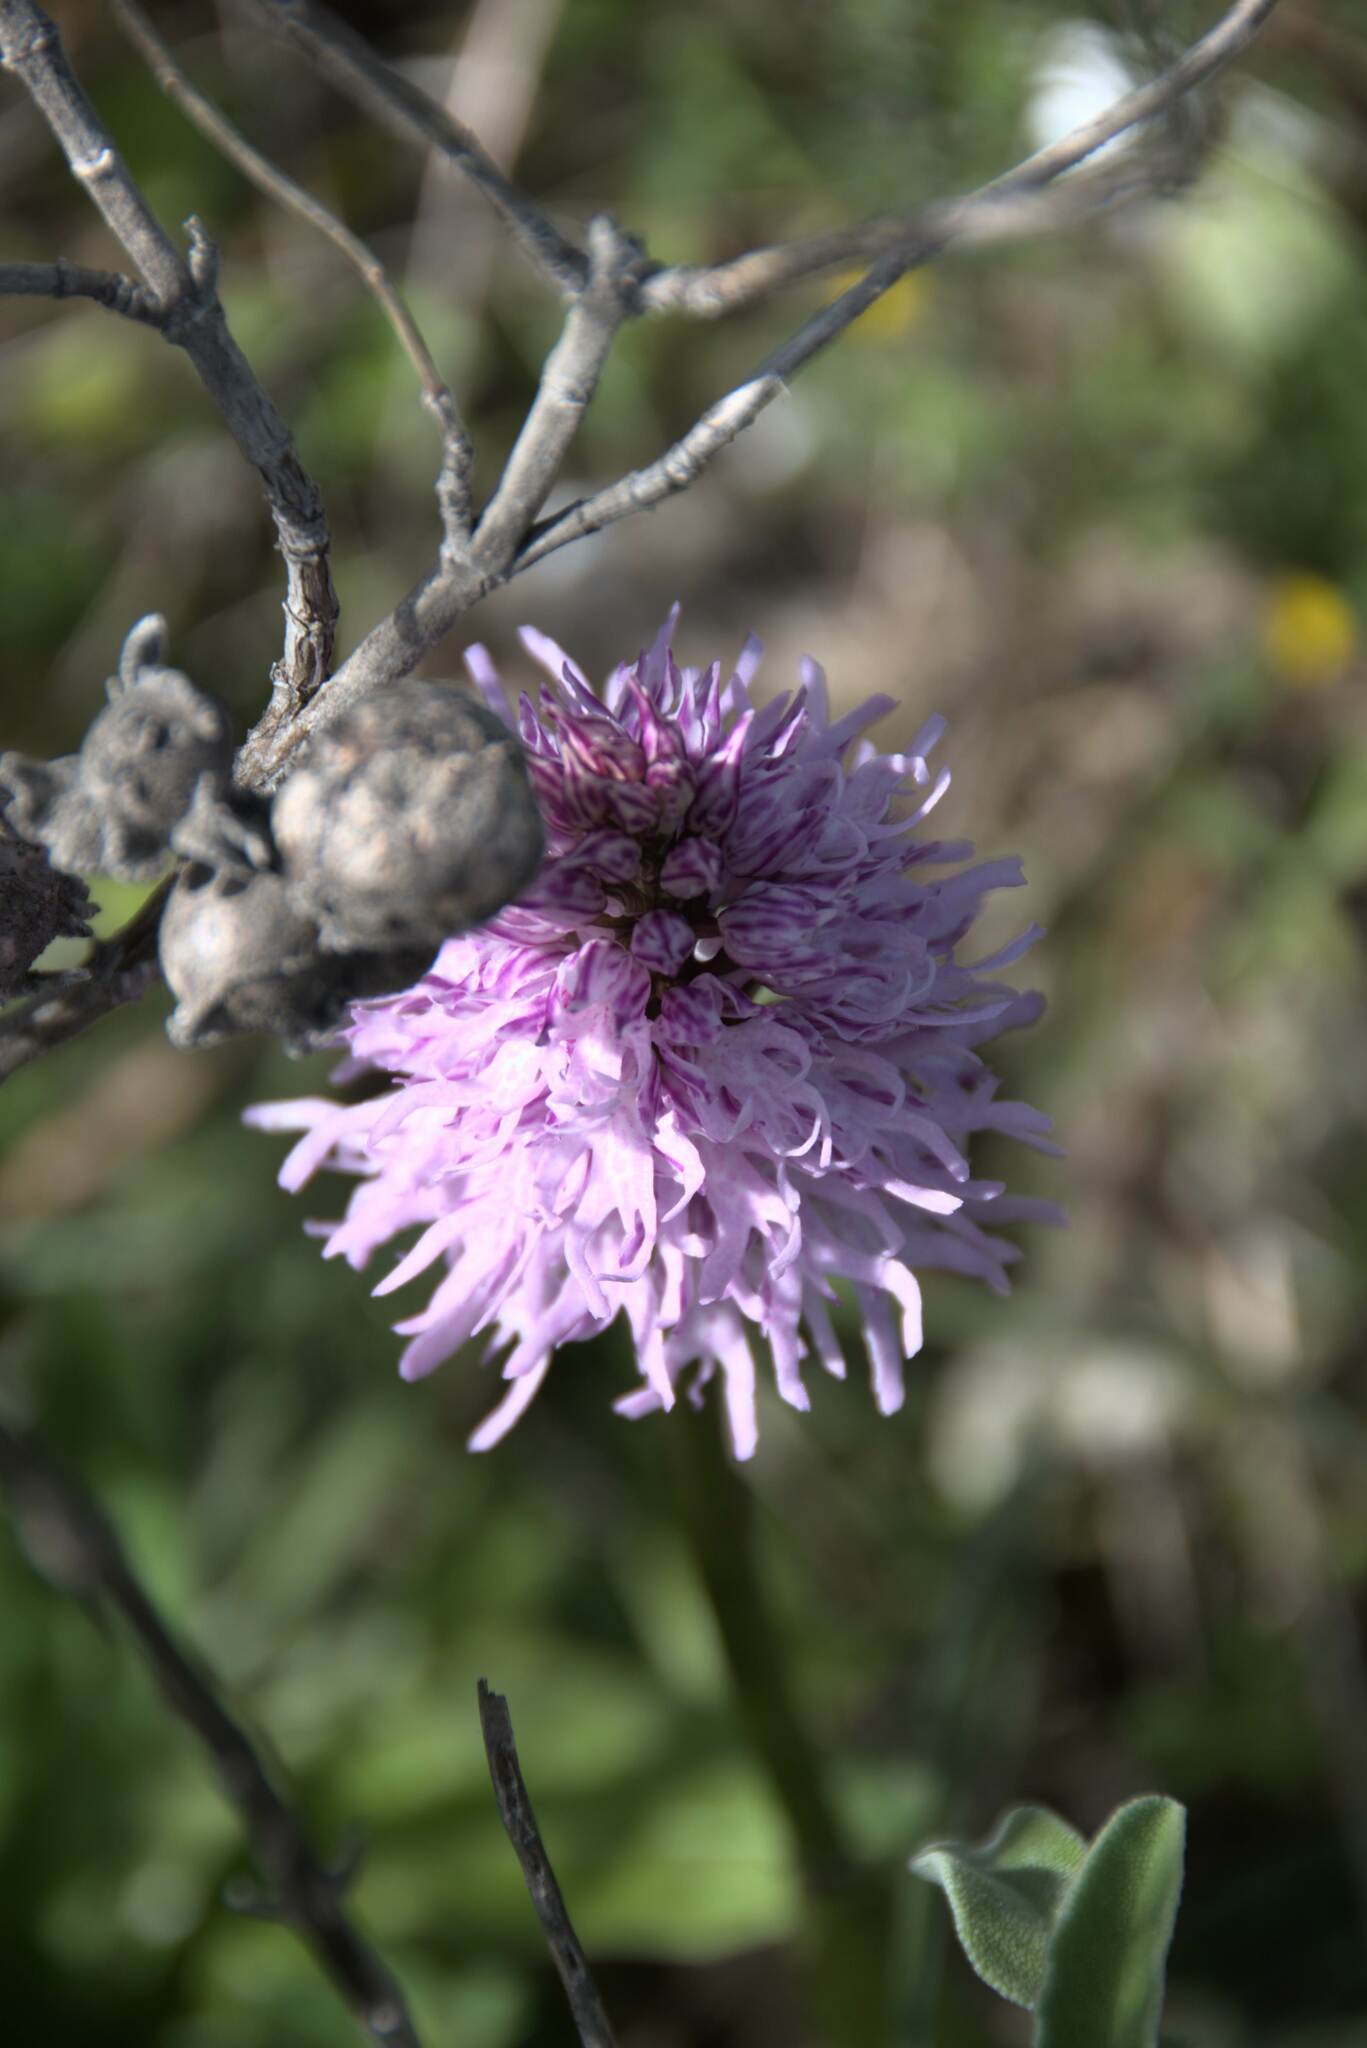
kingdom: Plantae
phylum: Tracheophyta
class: Liliopsida
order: Asparagales
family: Orchidaceae
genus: Orchis
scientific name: Orchis italica
